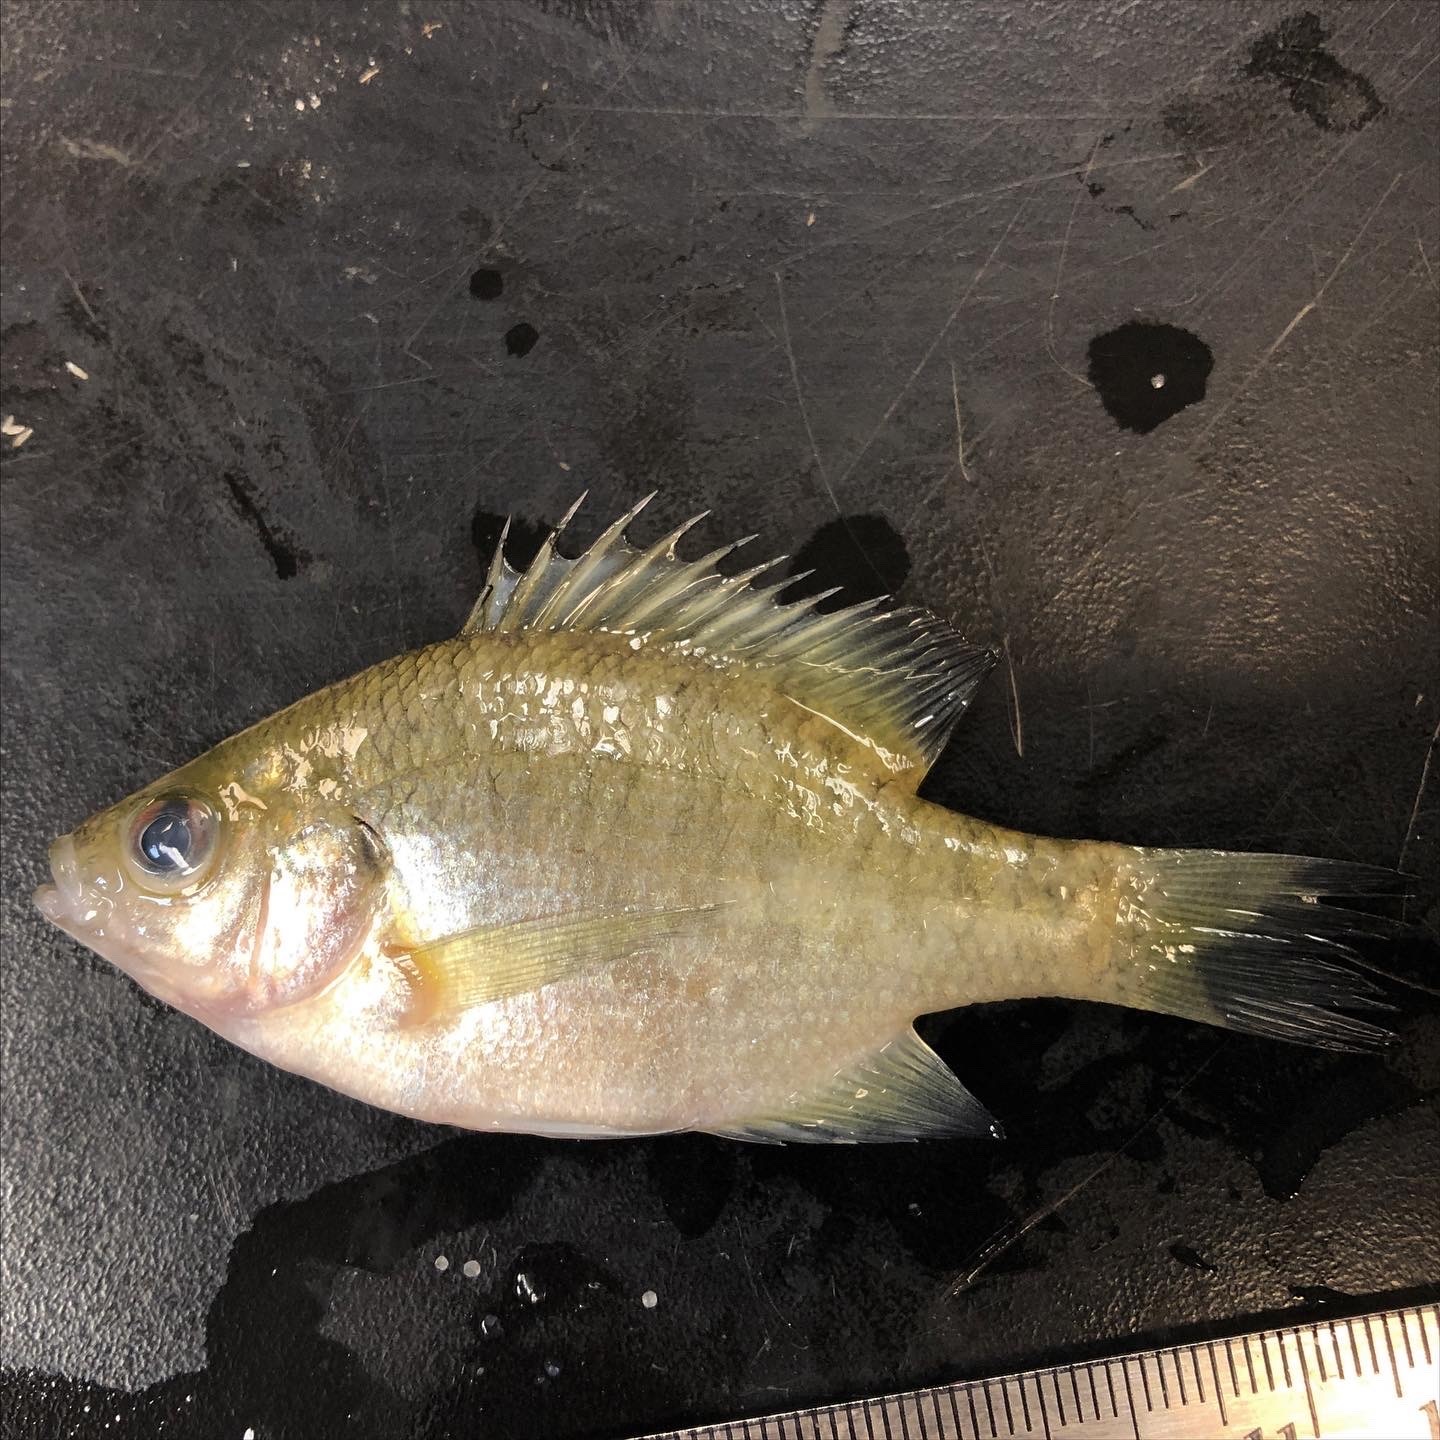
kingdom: Animalia
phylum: Chordata
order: Perciformes
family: Centrarchidae
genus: Lepomis
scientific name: Lepomis macrochirus
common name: Bluegill
